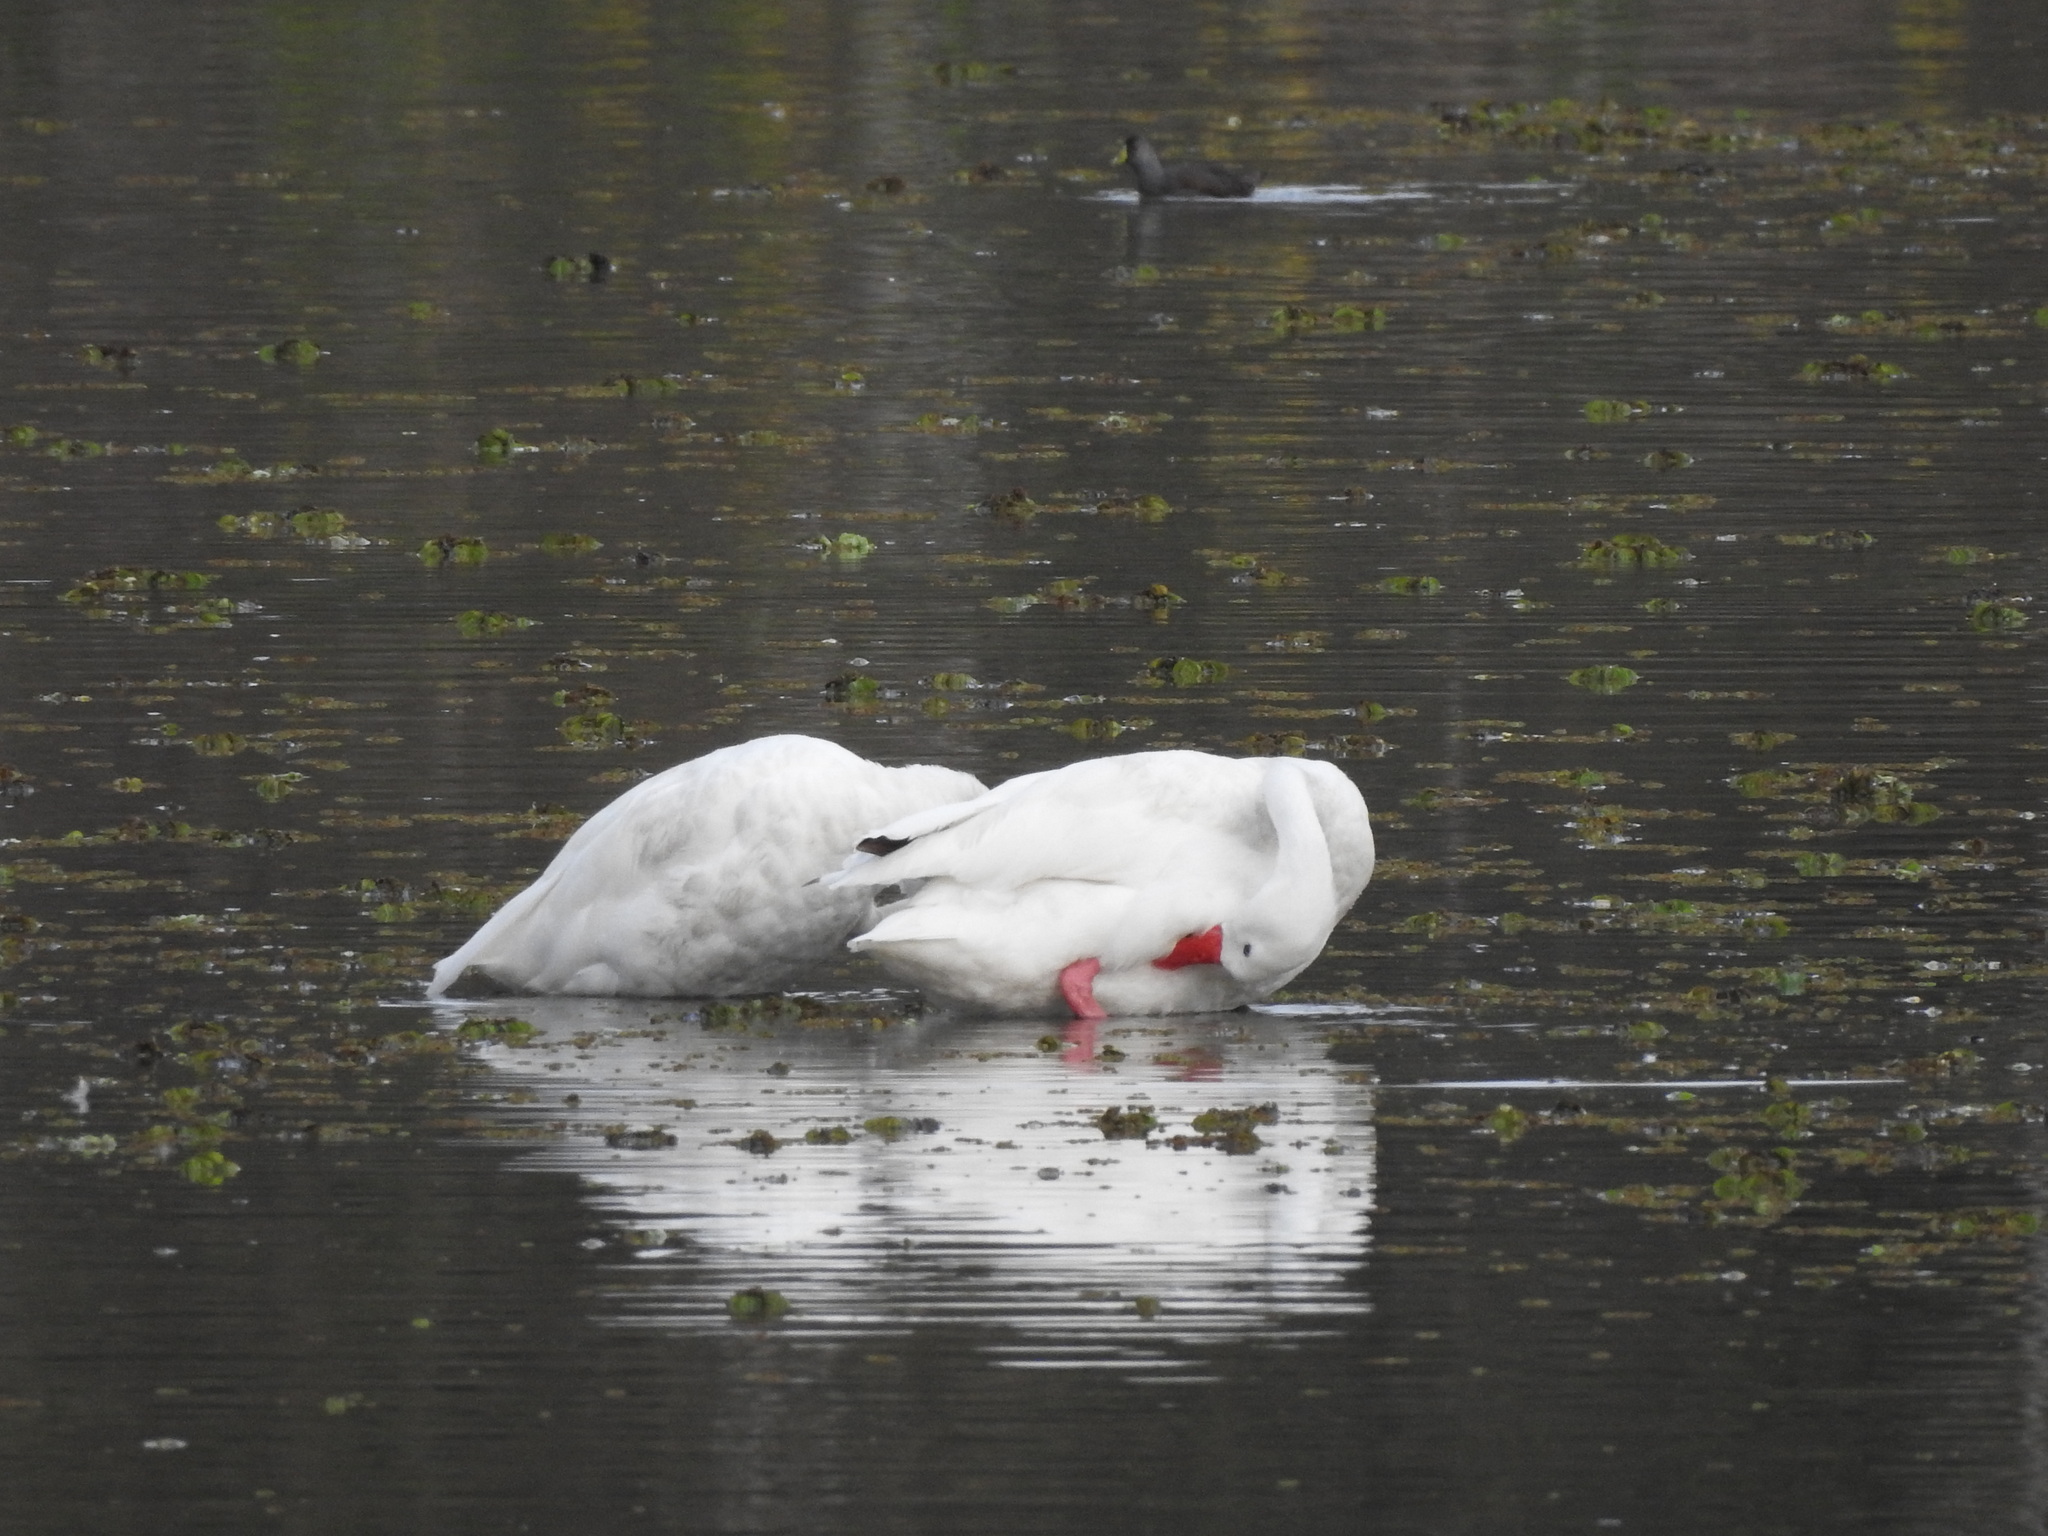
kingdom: Animalia
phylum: Chordata
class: Aves
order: Anseriformes
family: Anatidae
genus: Coscoroba
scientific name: Coscoroba coscoroba
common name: Coscoroba swan
